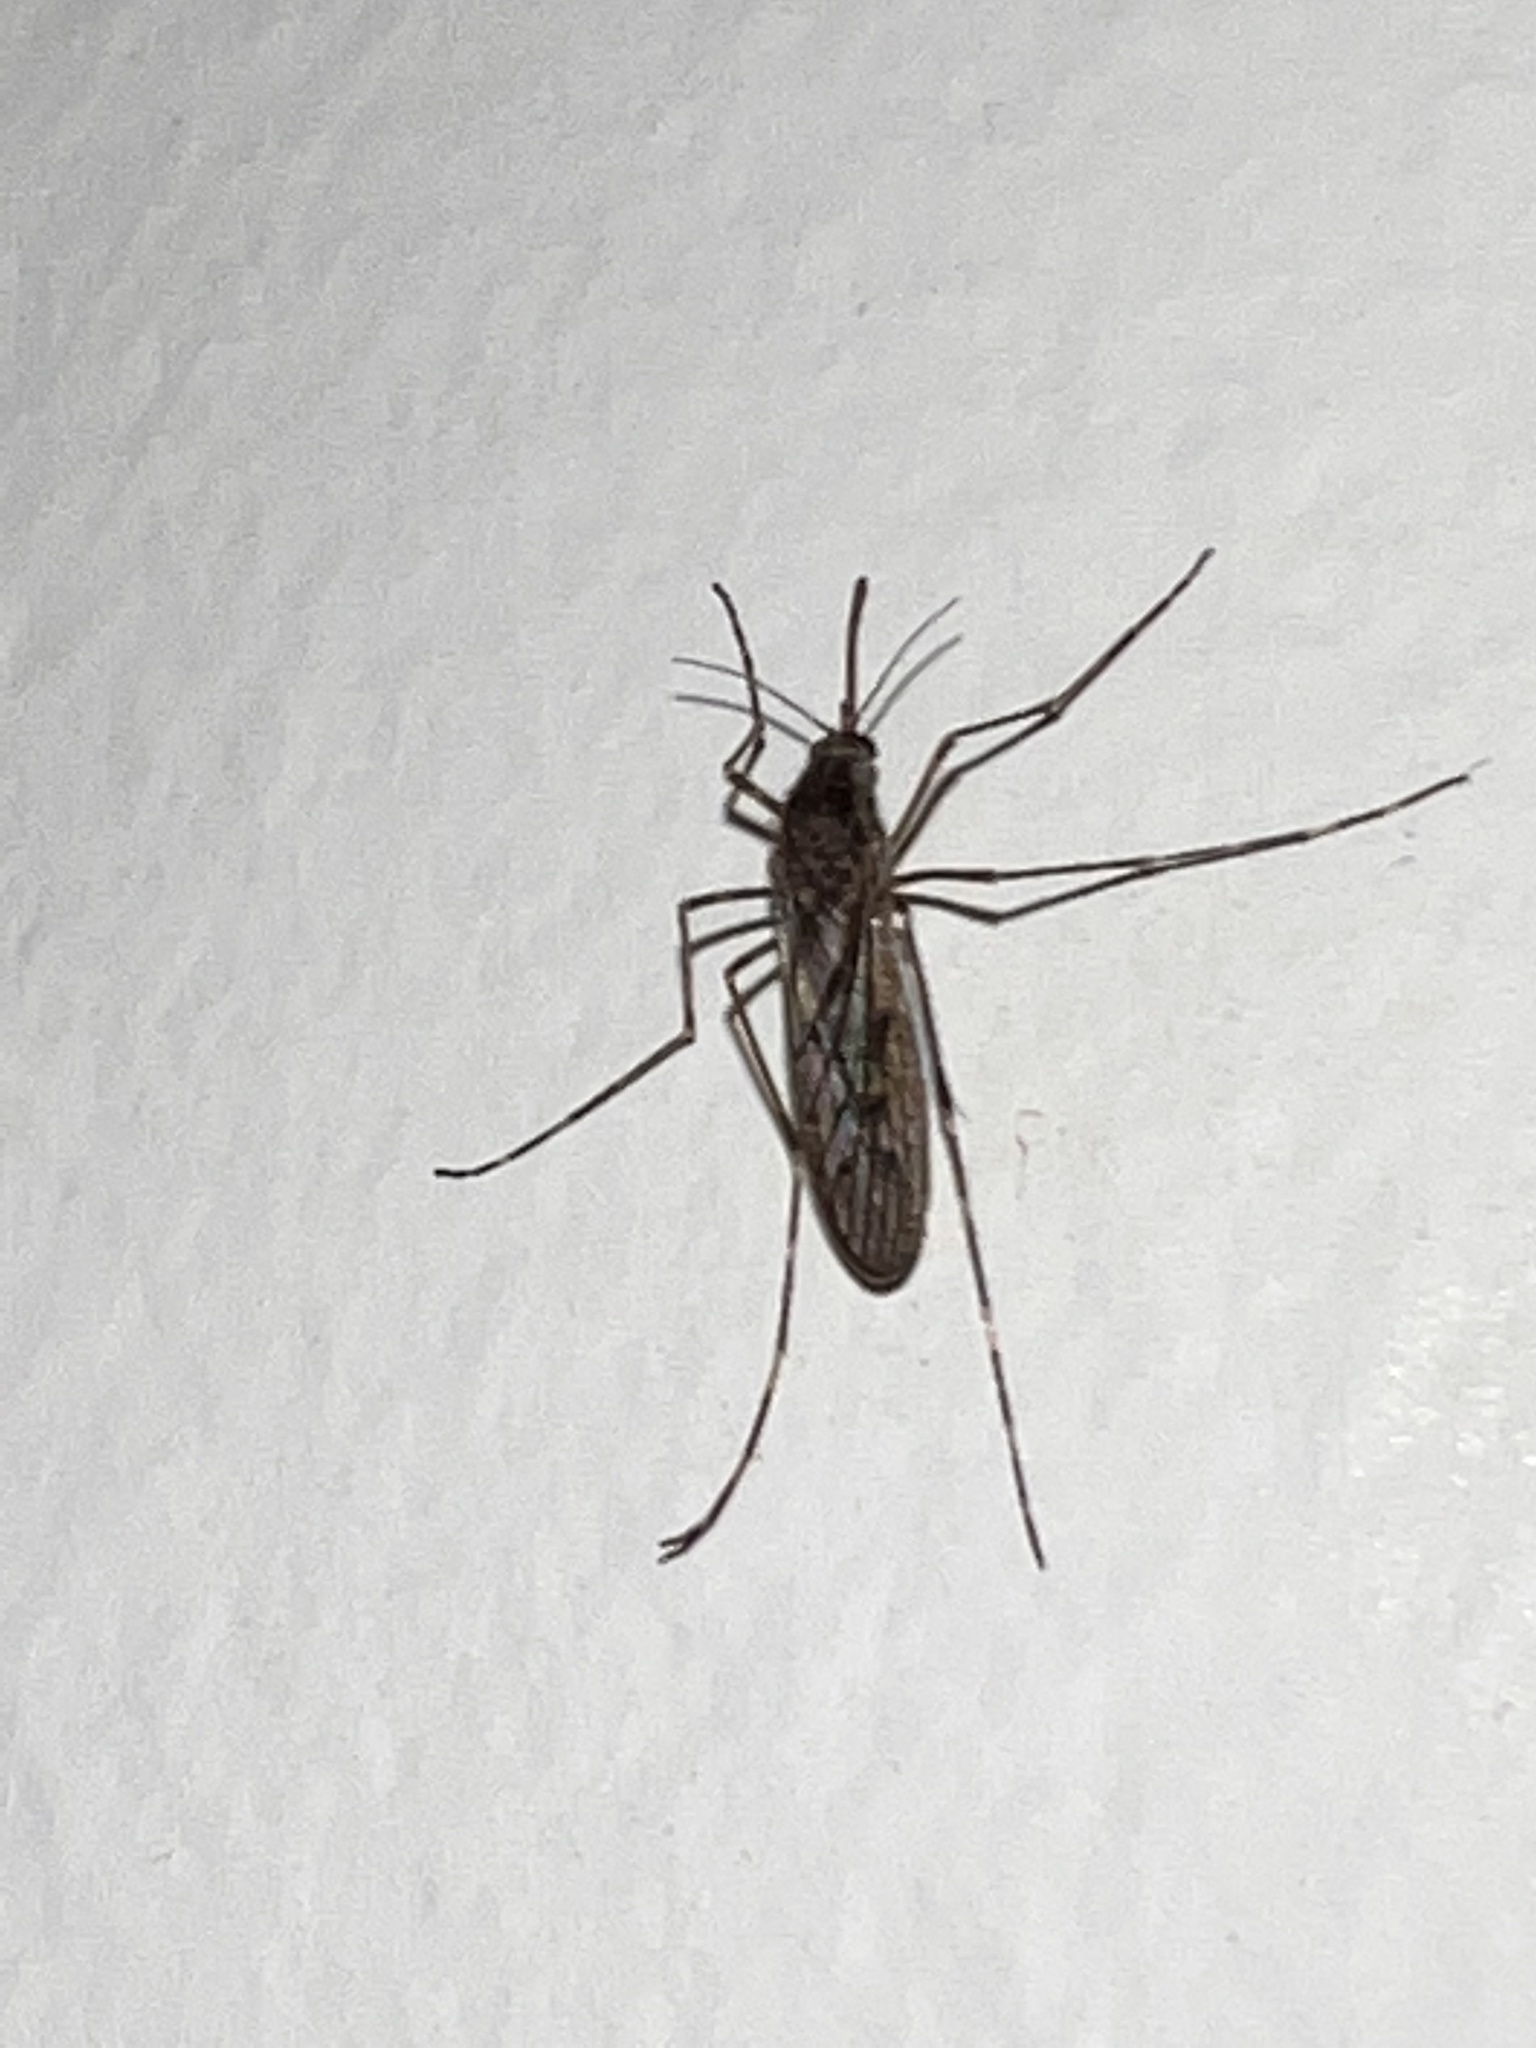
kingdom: Animalia
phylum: Arthropoda
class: Insecta
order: Diptera
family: Culicidae
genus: Culiseta
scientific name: Culiseta annulata
